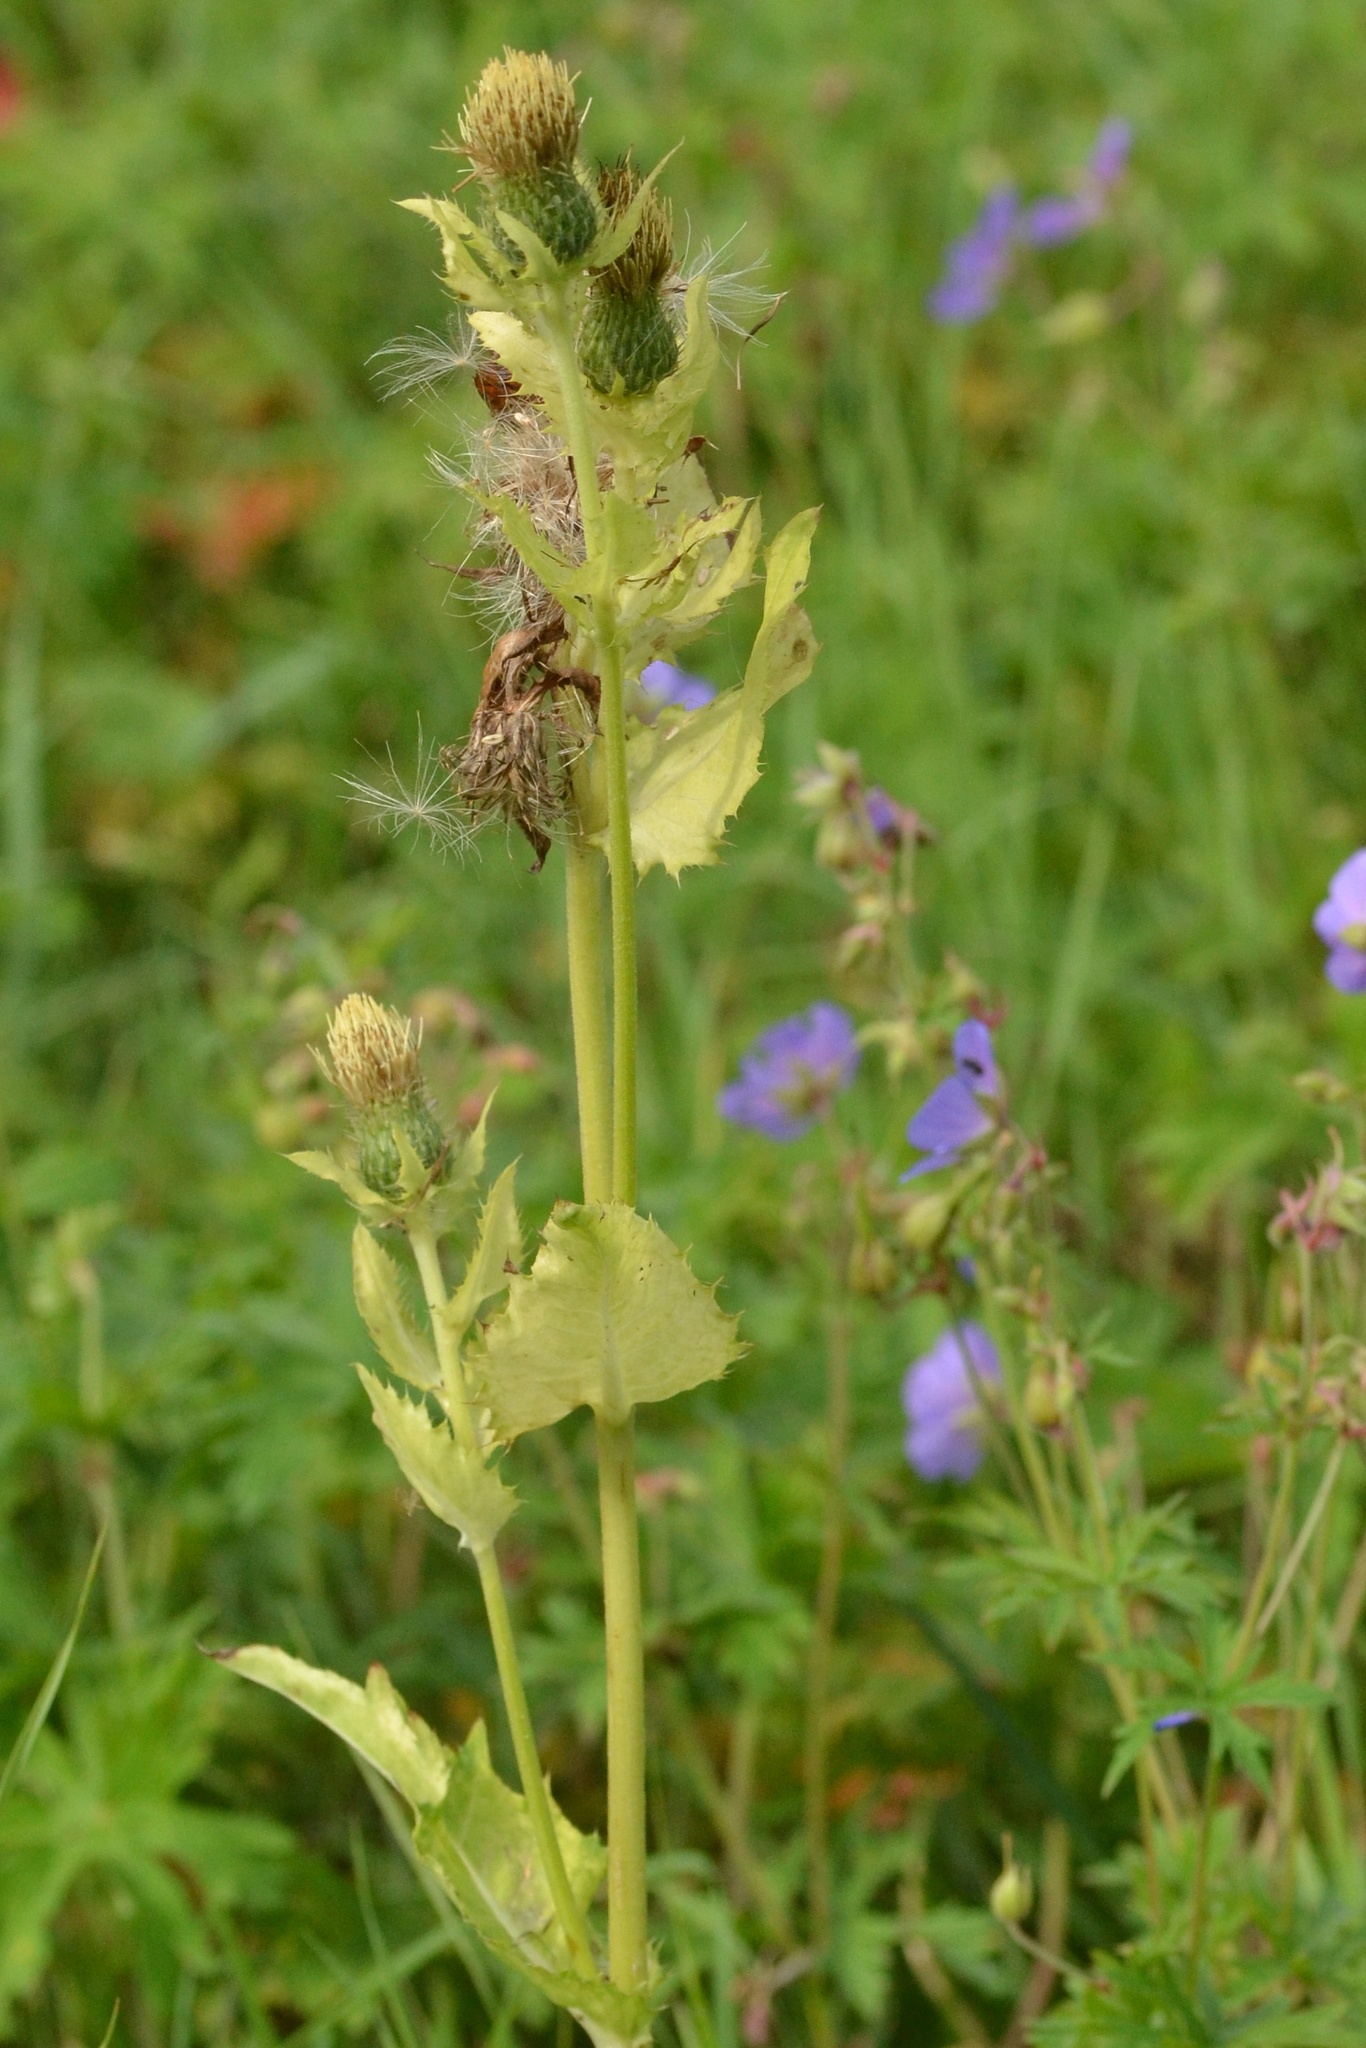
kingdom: Plantae
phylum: Tracheophyta
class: Magnoliopsida
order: Asterales
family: Asteraceae
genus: Cirsium
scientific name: Cirsium oleraceum
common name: Cabbage thistle
